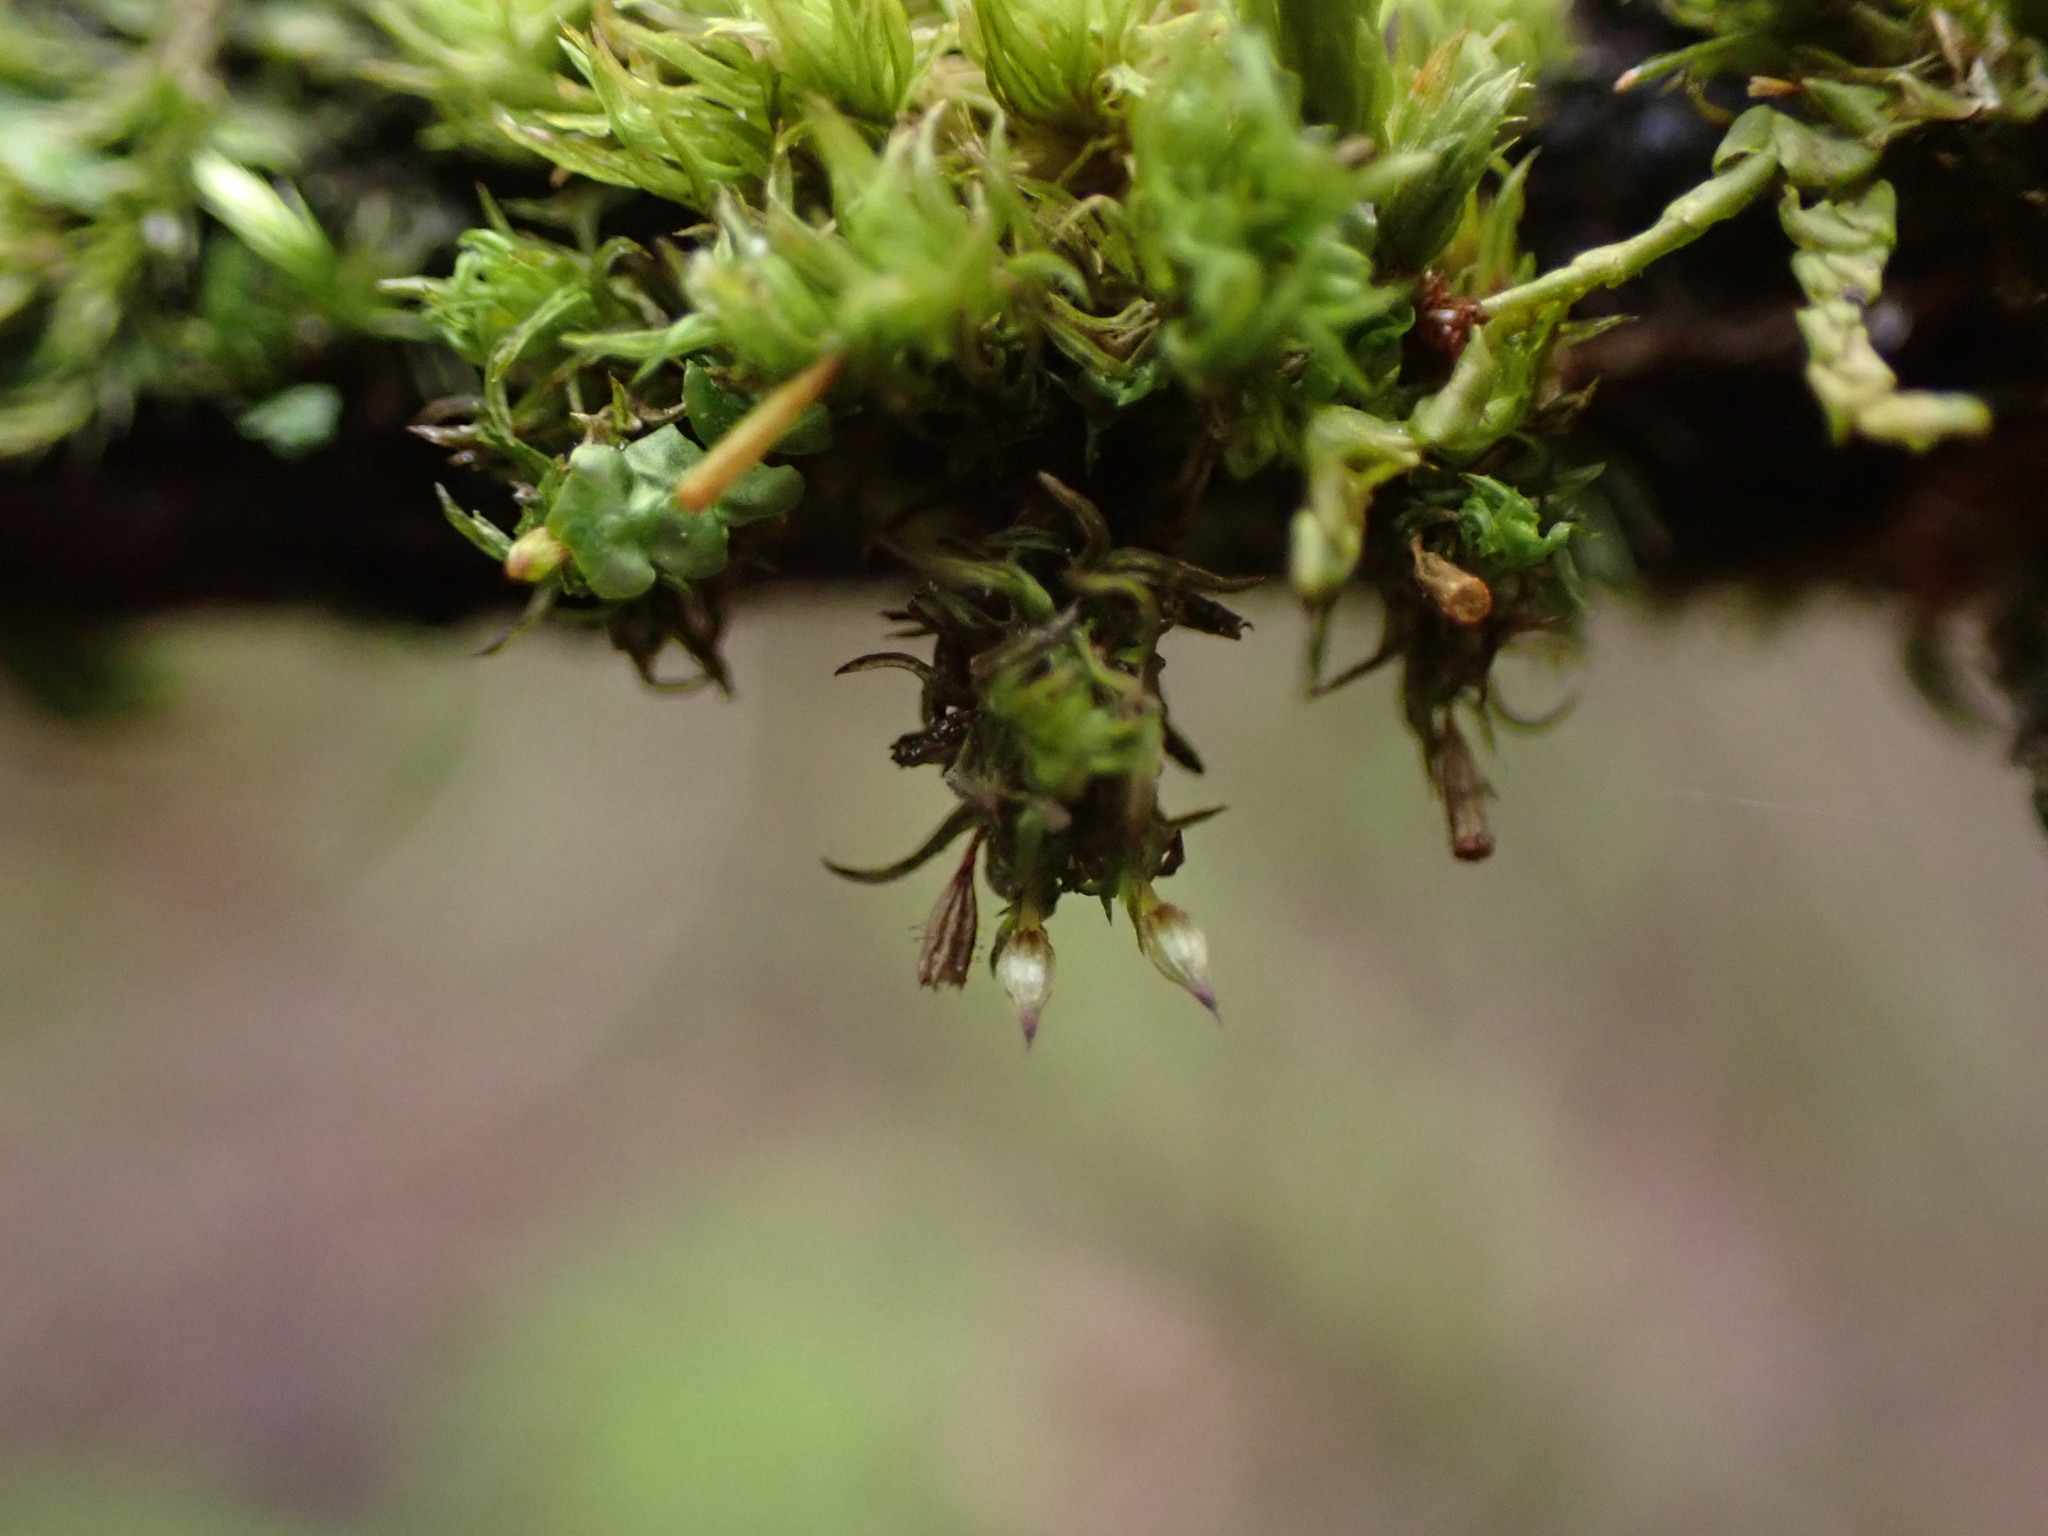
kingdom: Plantae
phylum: Bryophyta
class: Bryopsida
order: Orthotrichales
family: Orthotrichaceae
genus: Orthotrichum
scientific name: Orthotrichum pulchellum
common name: Elegant bristle-moss
